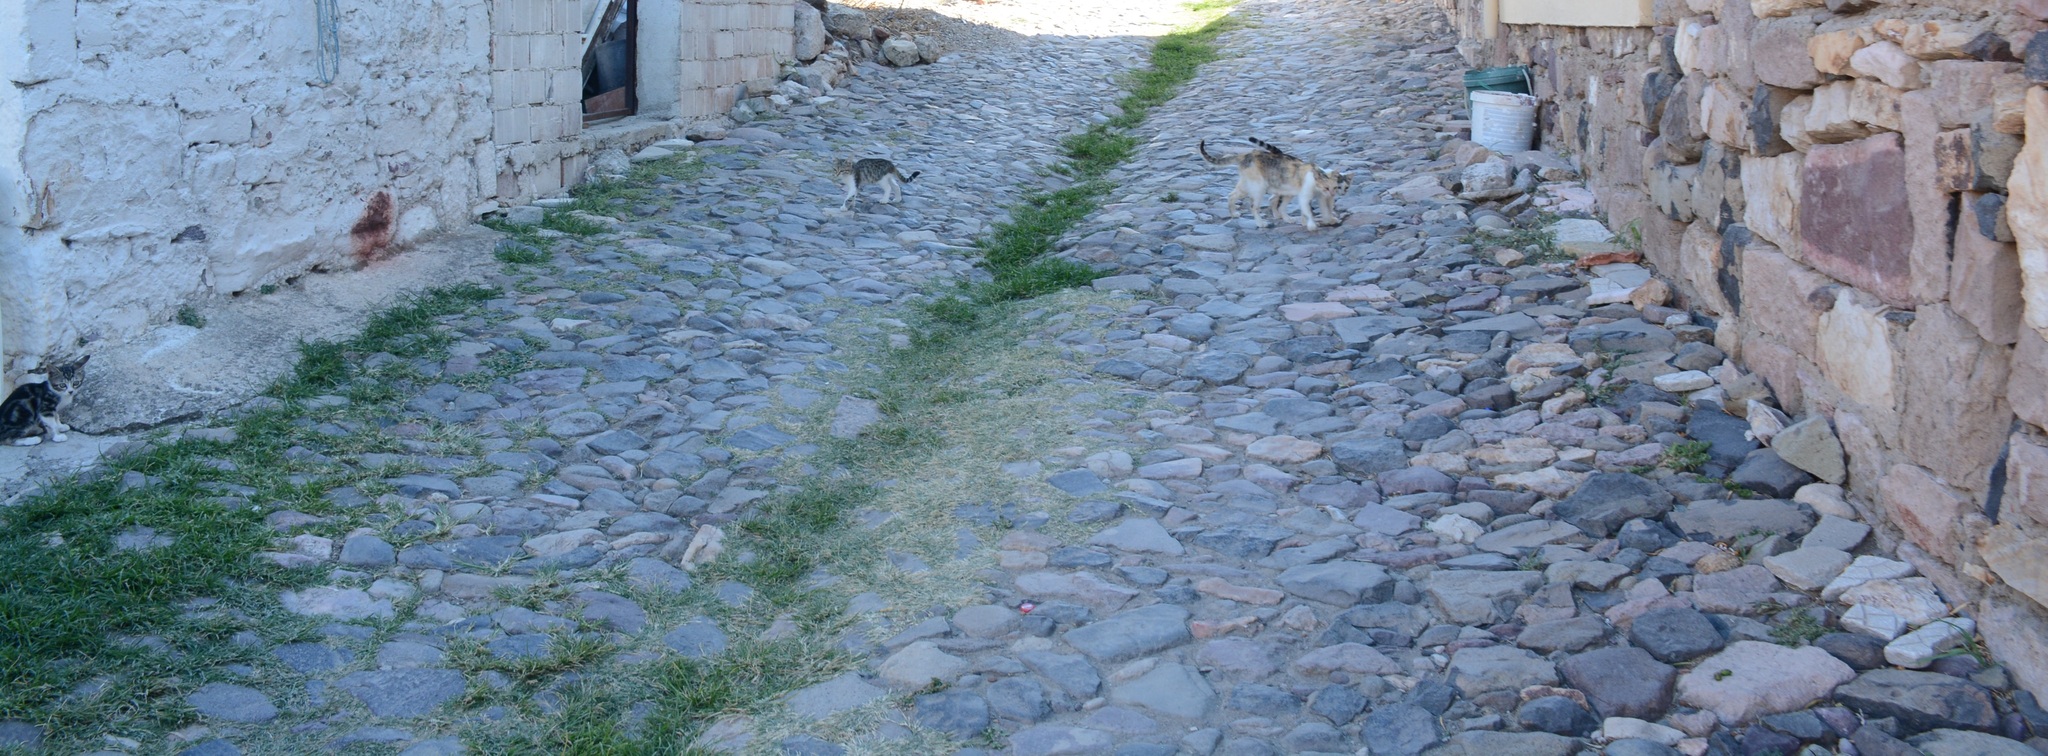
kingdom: Animalia
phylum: Chordata
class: Mammalia
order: Carnivora
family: Felidae
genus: Felis
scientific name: Felis catus
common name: Domestic cat
